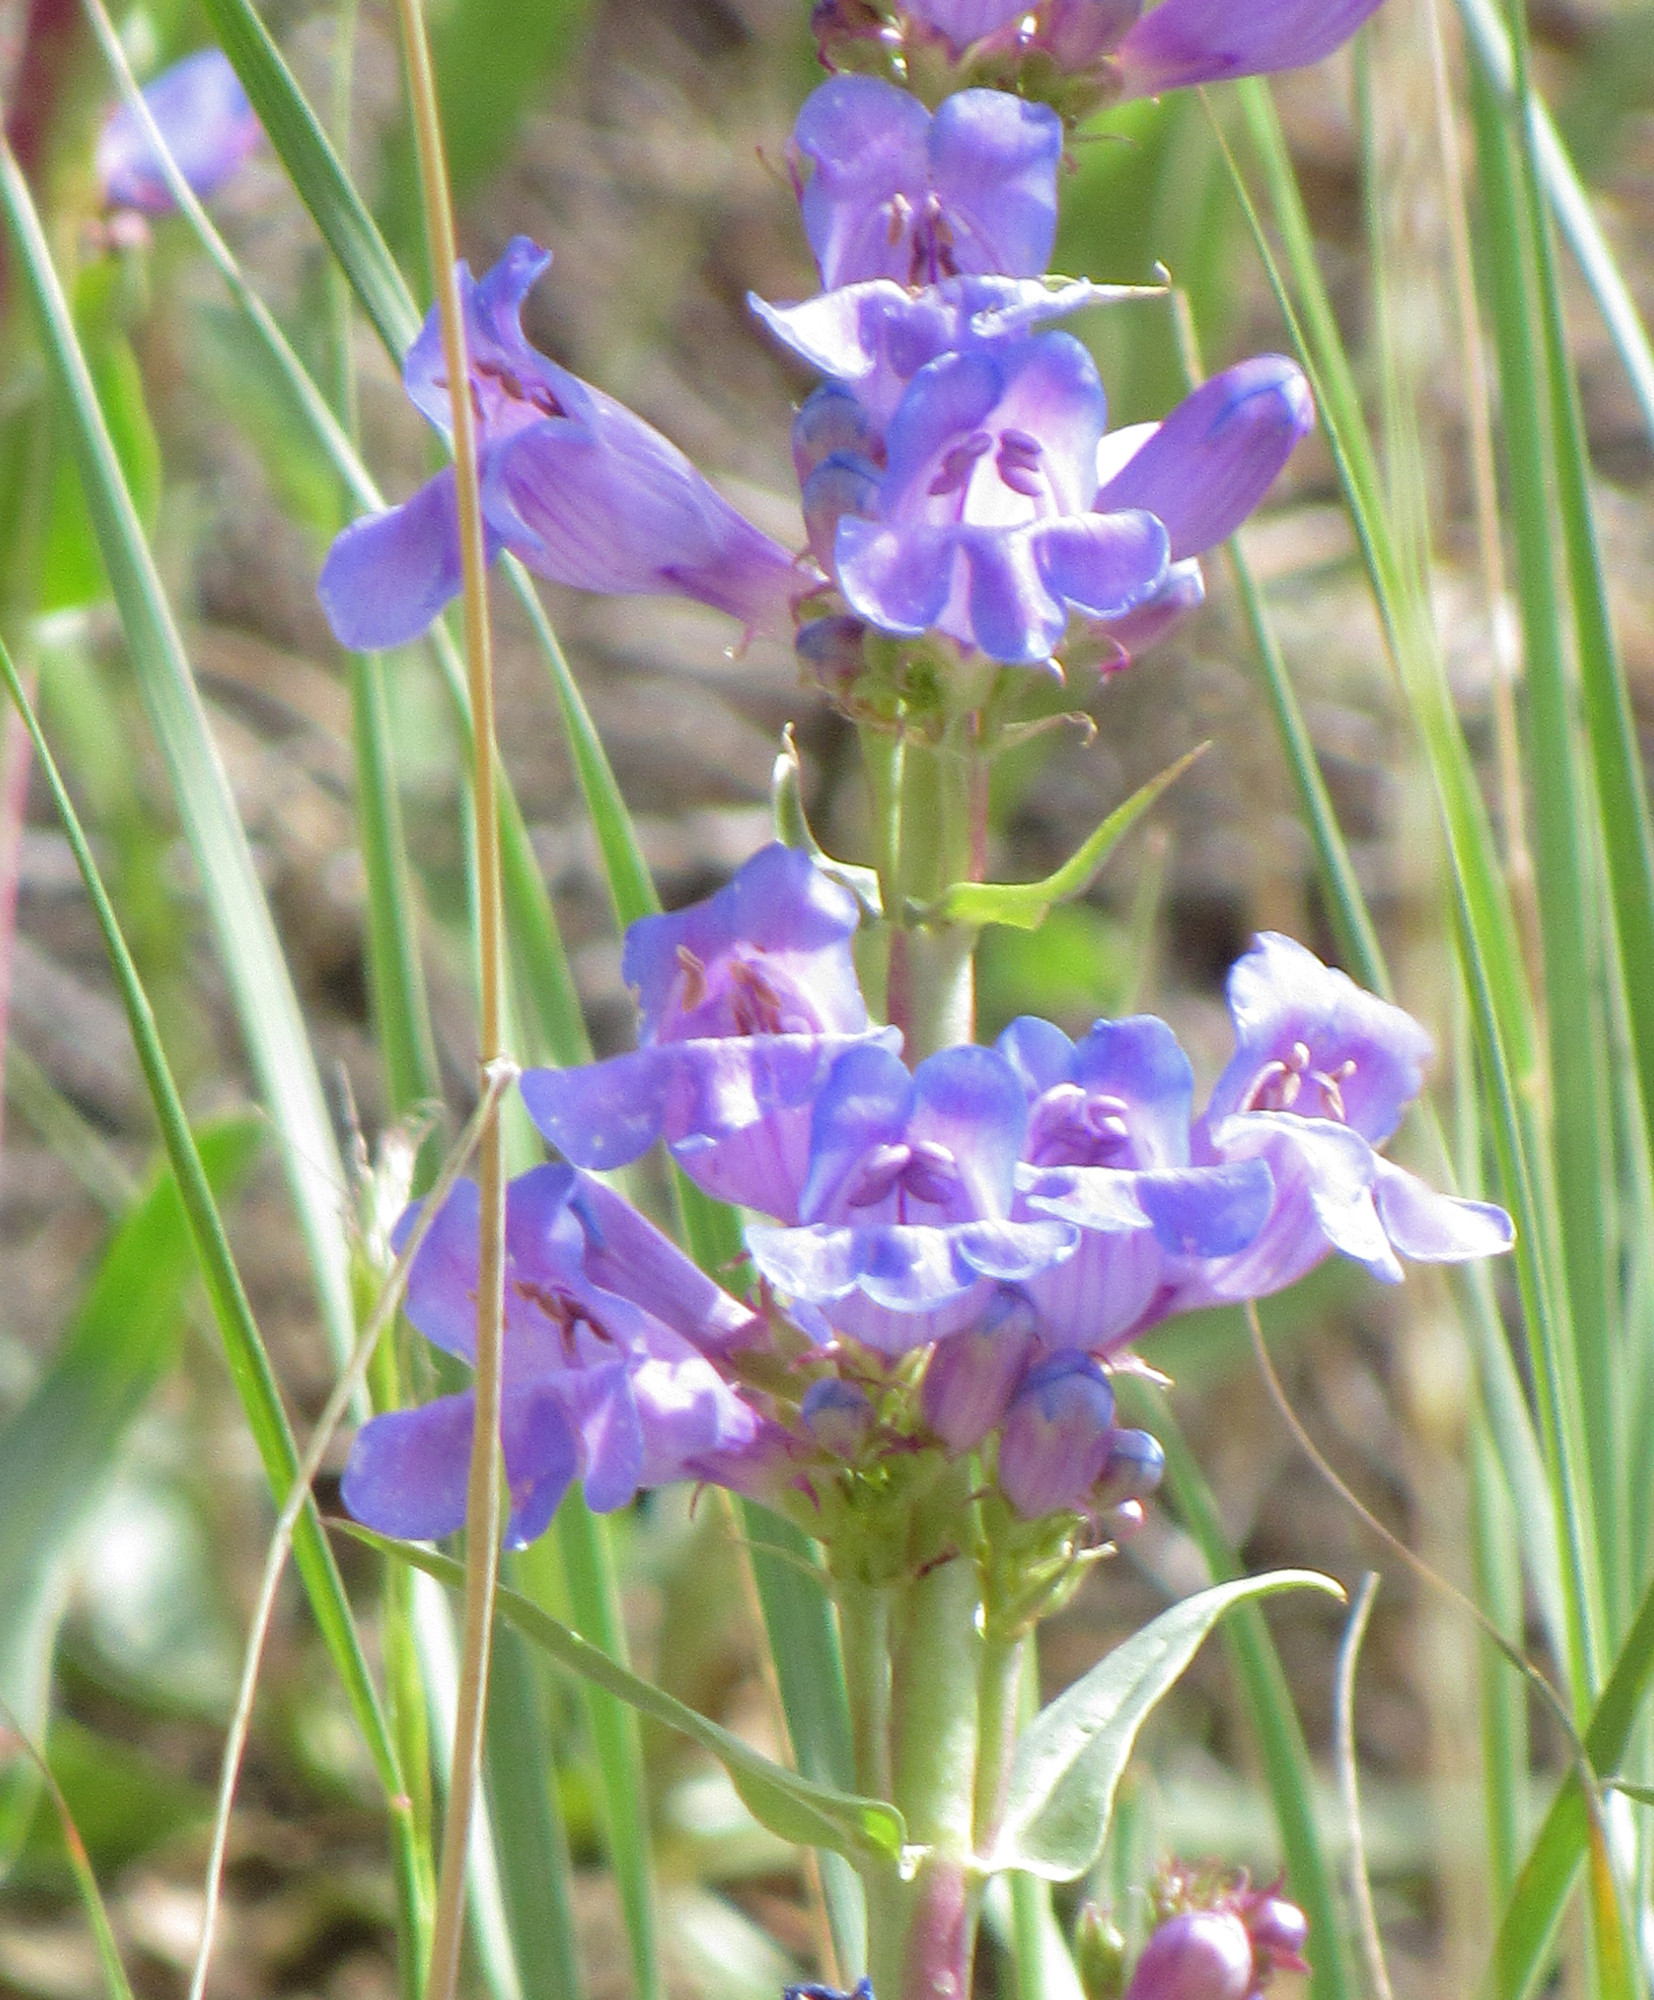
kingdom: Plantae
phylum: Tracheophyta
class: Magnoliopsida
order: Lamiales
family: Plantaginaceae
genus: Penstemon
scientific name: Penstemon payettensis
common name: Payette penstemon
